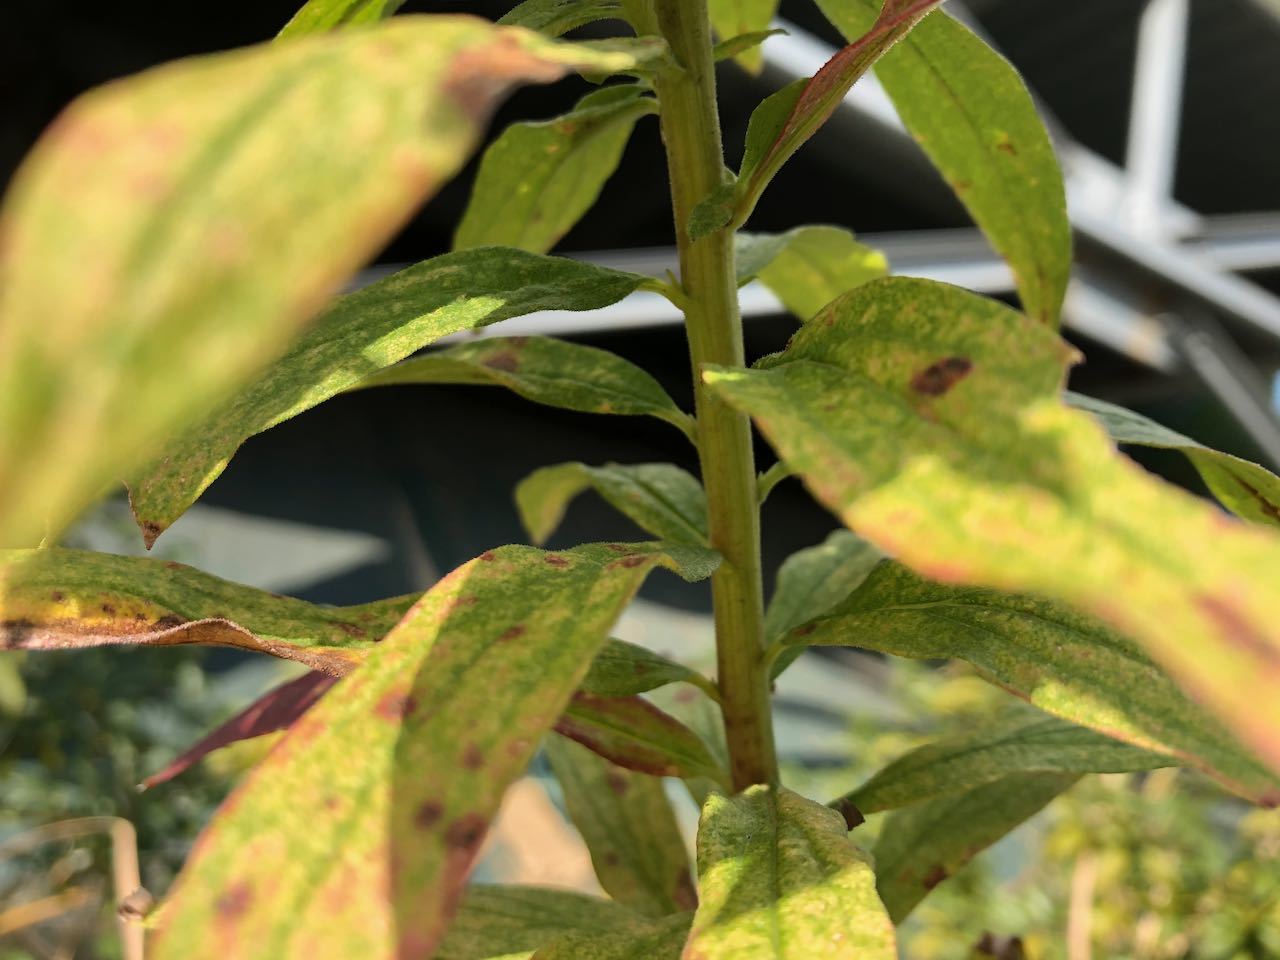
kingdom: Plantae
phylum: Tracheophyta
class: Magnoliopsida
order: Asterales
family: Asteraceae
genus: Solidago
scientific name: Solidago altissima
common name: Late goldenrod
